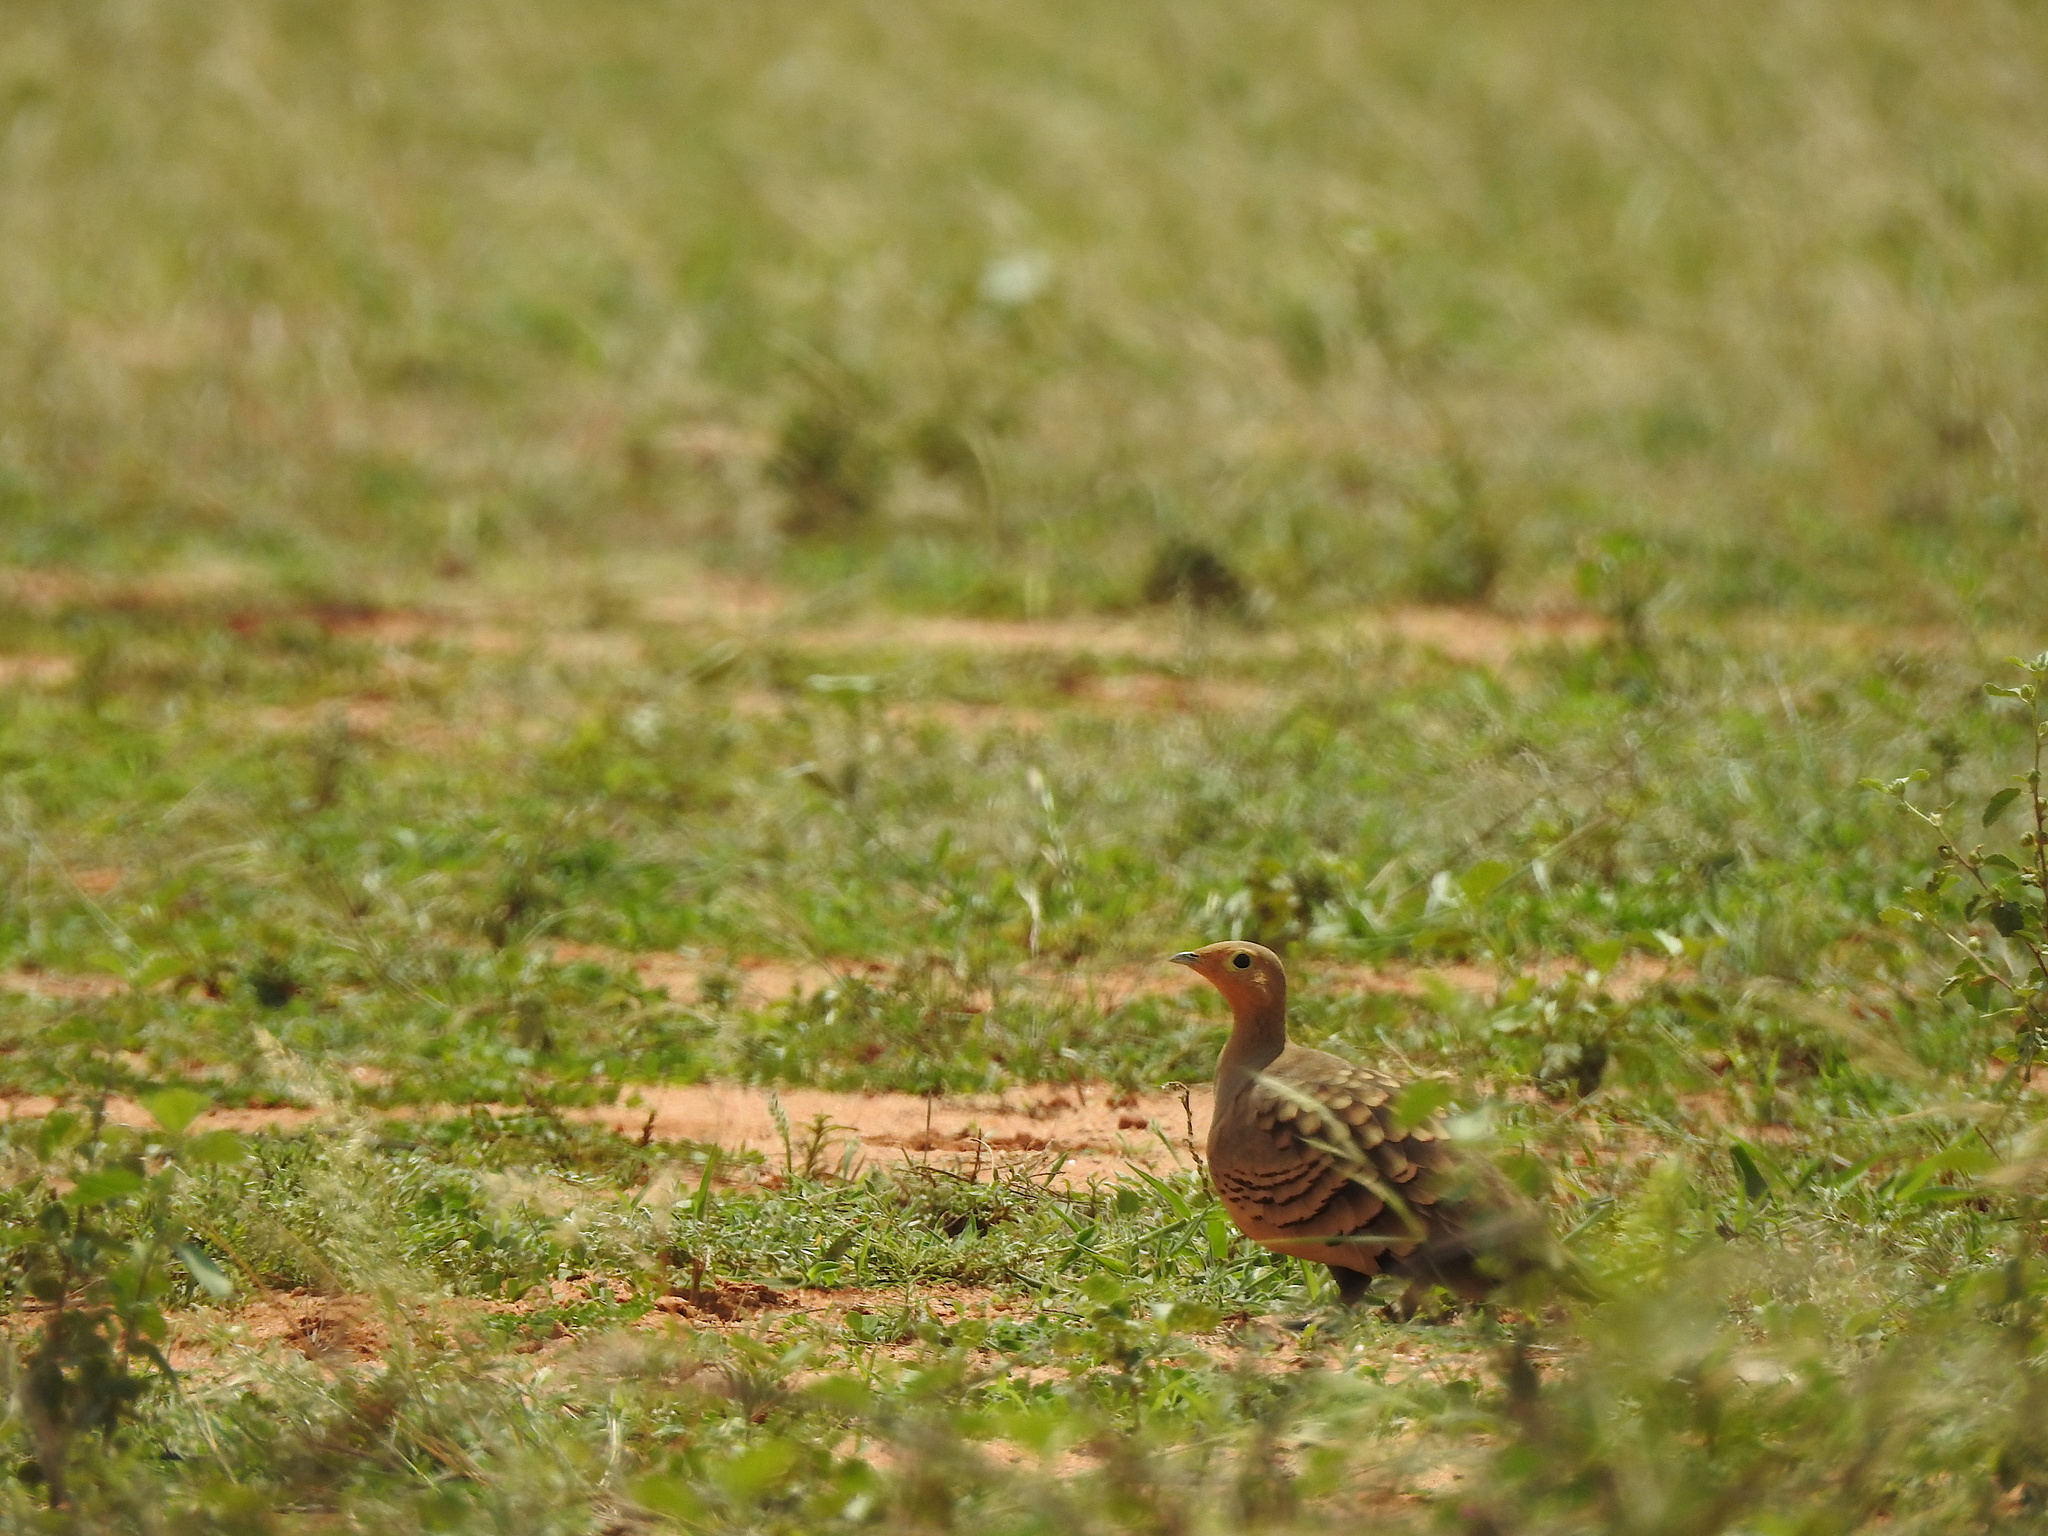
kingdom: Animalia
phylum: Chordata
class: Aves
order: Pteroclidiformes
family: Pteroclididae
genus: Pterocles
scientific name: Pterocles exustus
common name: Chestnut-bellied sandgrouse
